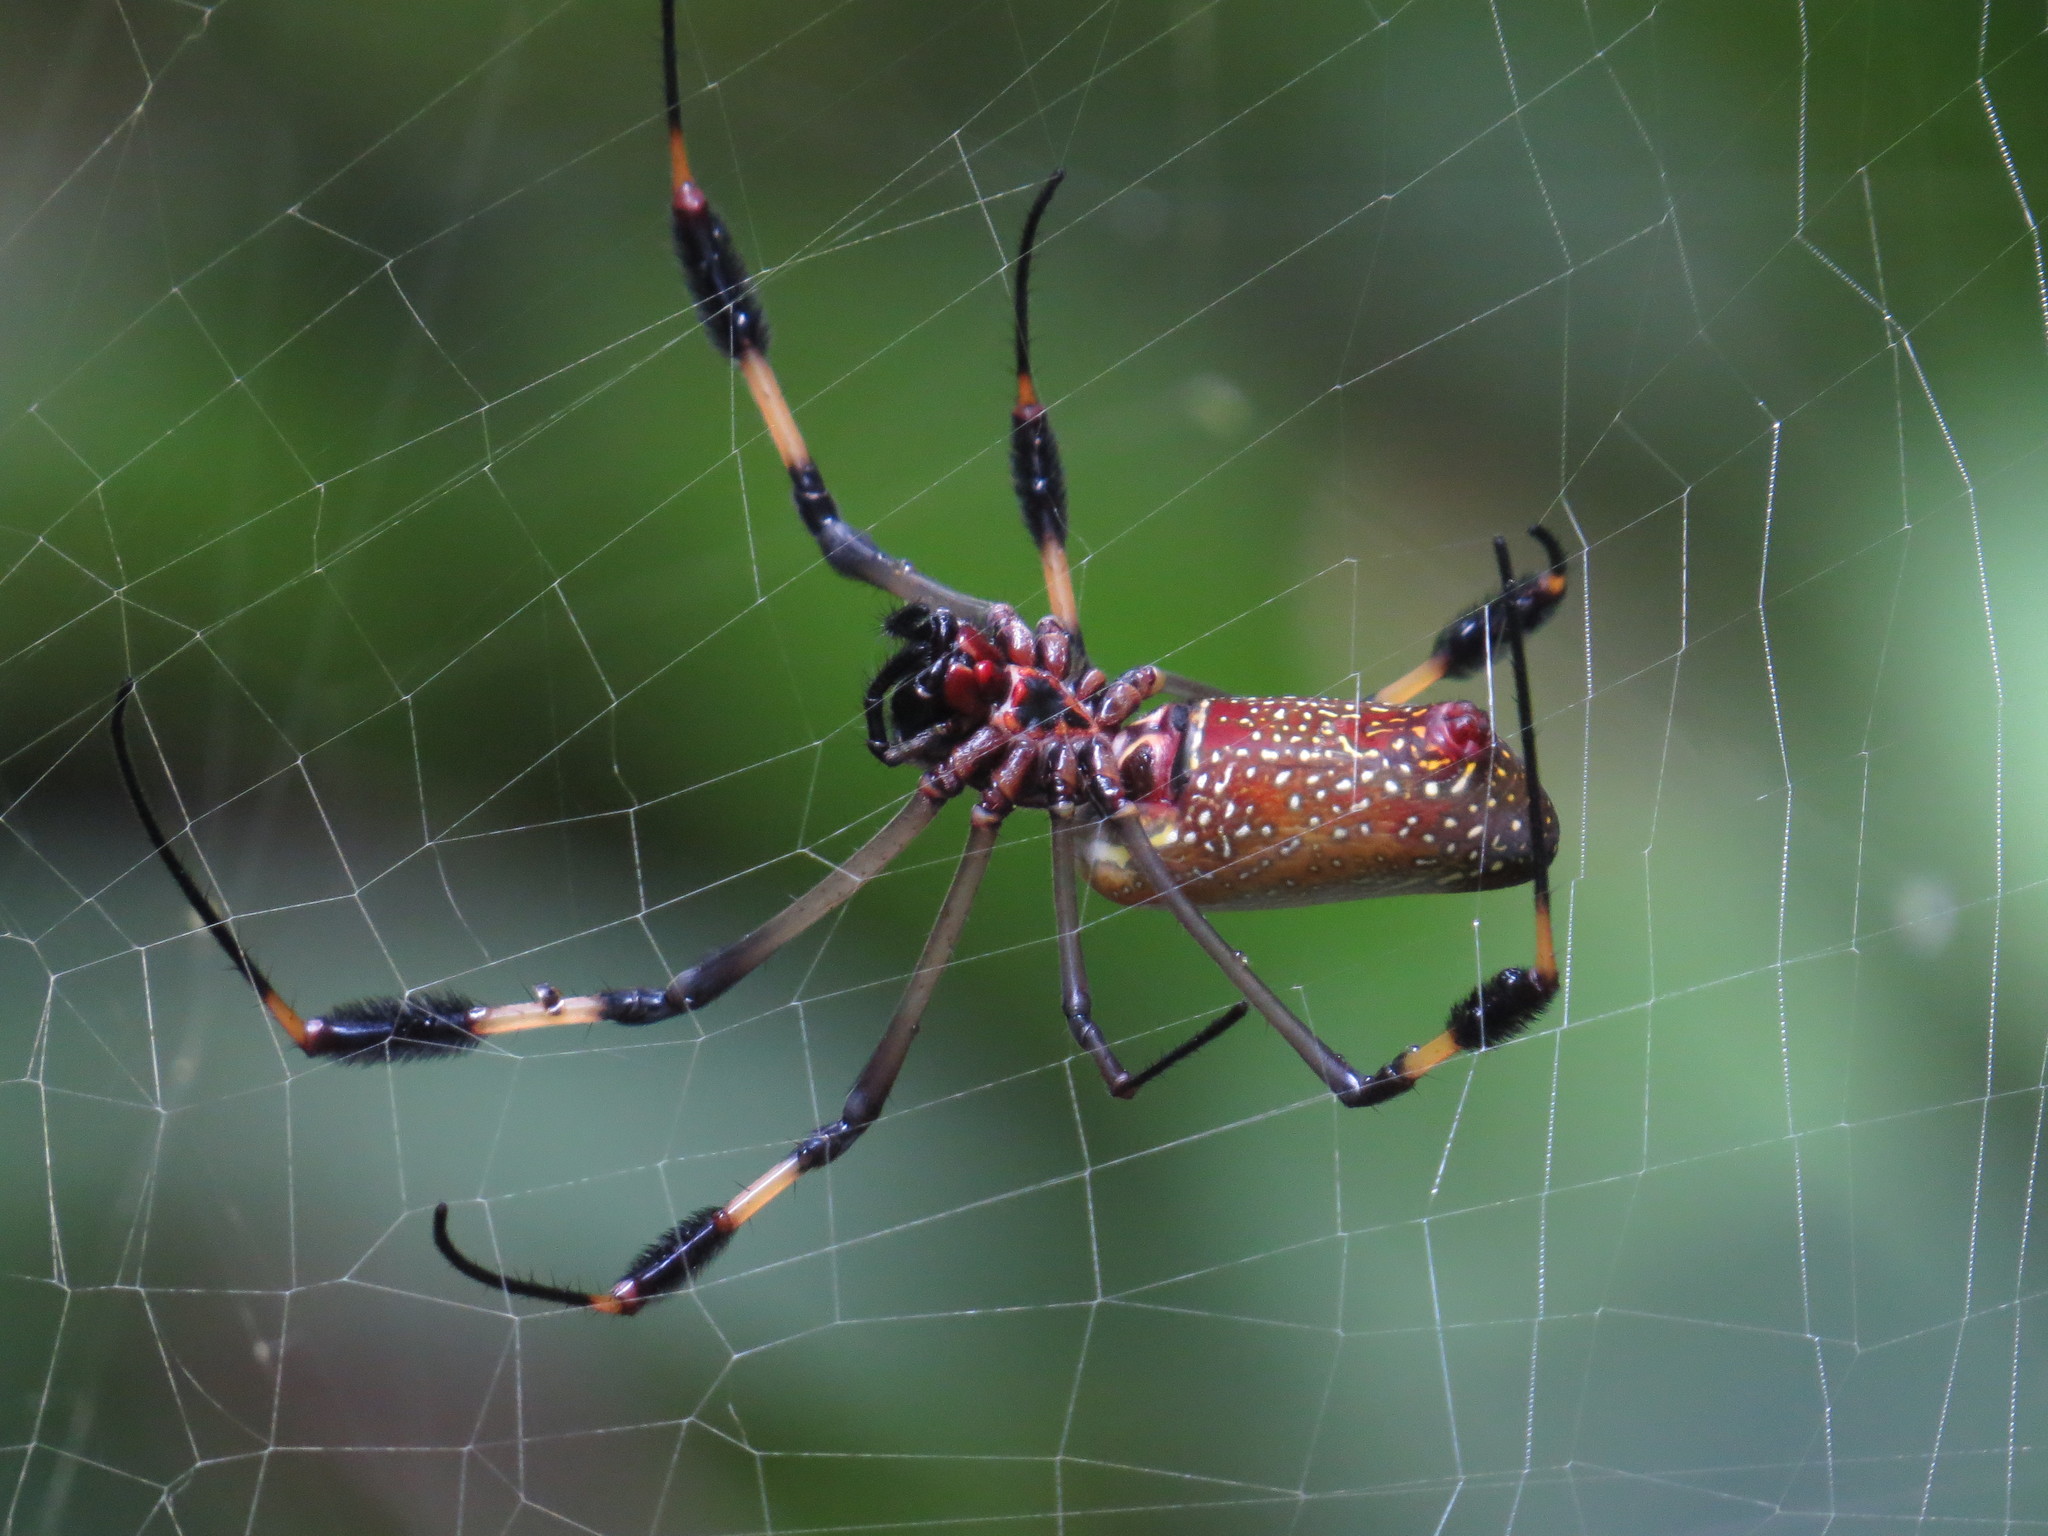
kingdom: Animalia
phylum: Arthropoda
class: Arachnida
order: Araneae
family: Araneidae
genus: Trichonephila
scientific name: Trichonephila clavipes
